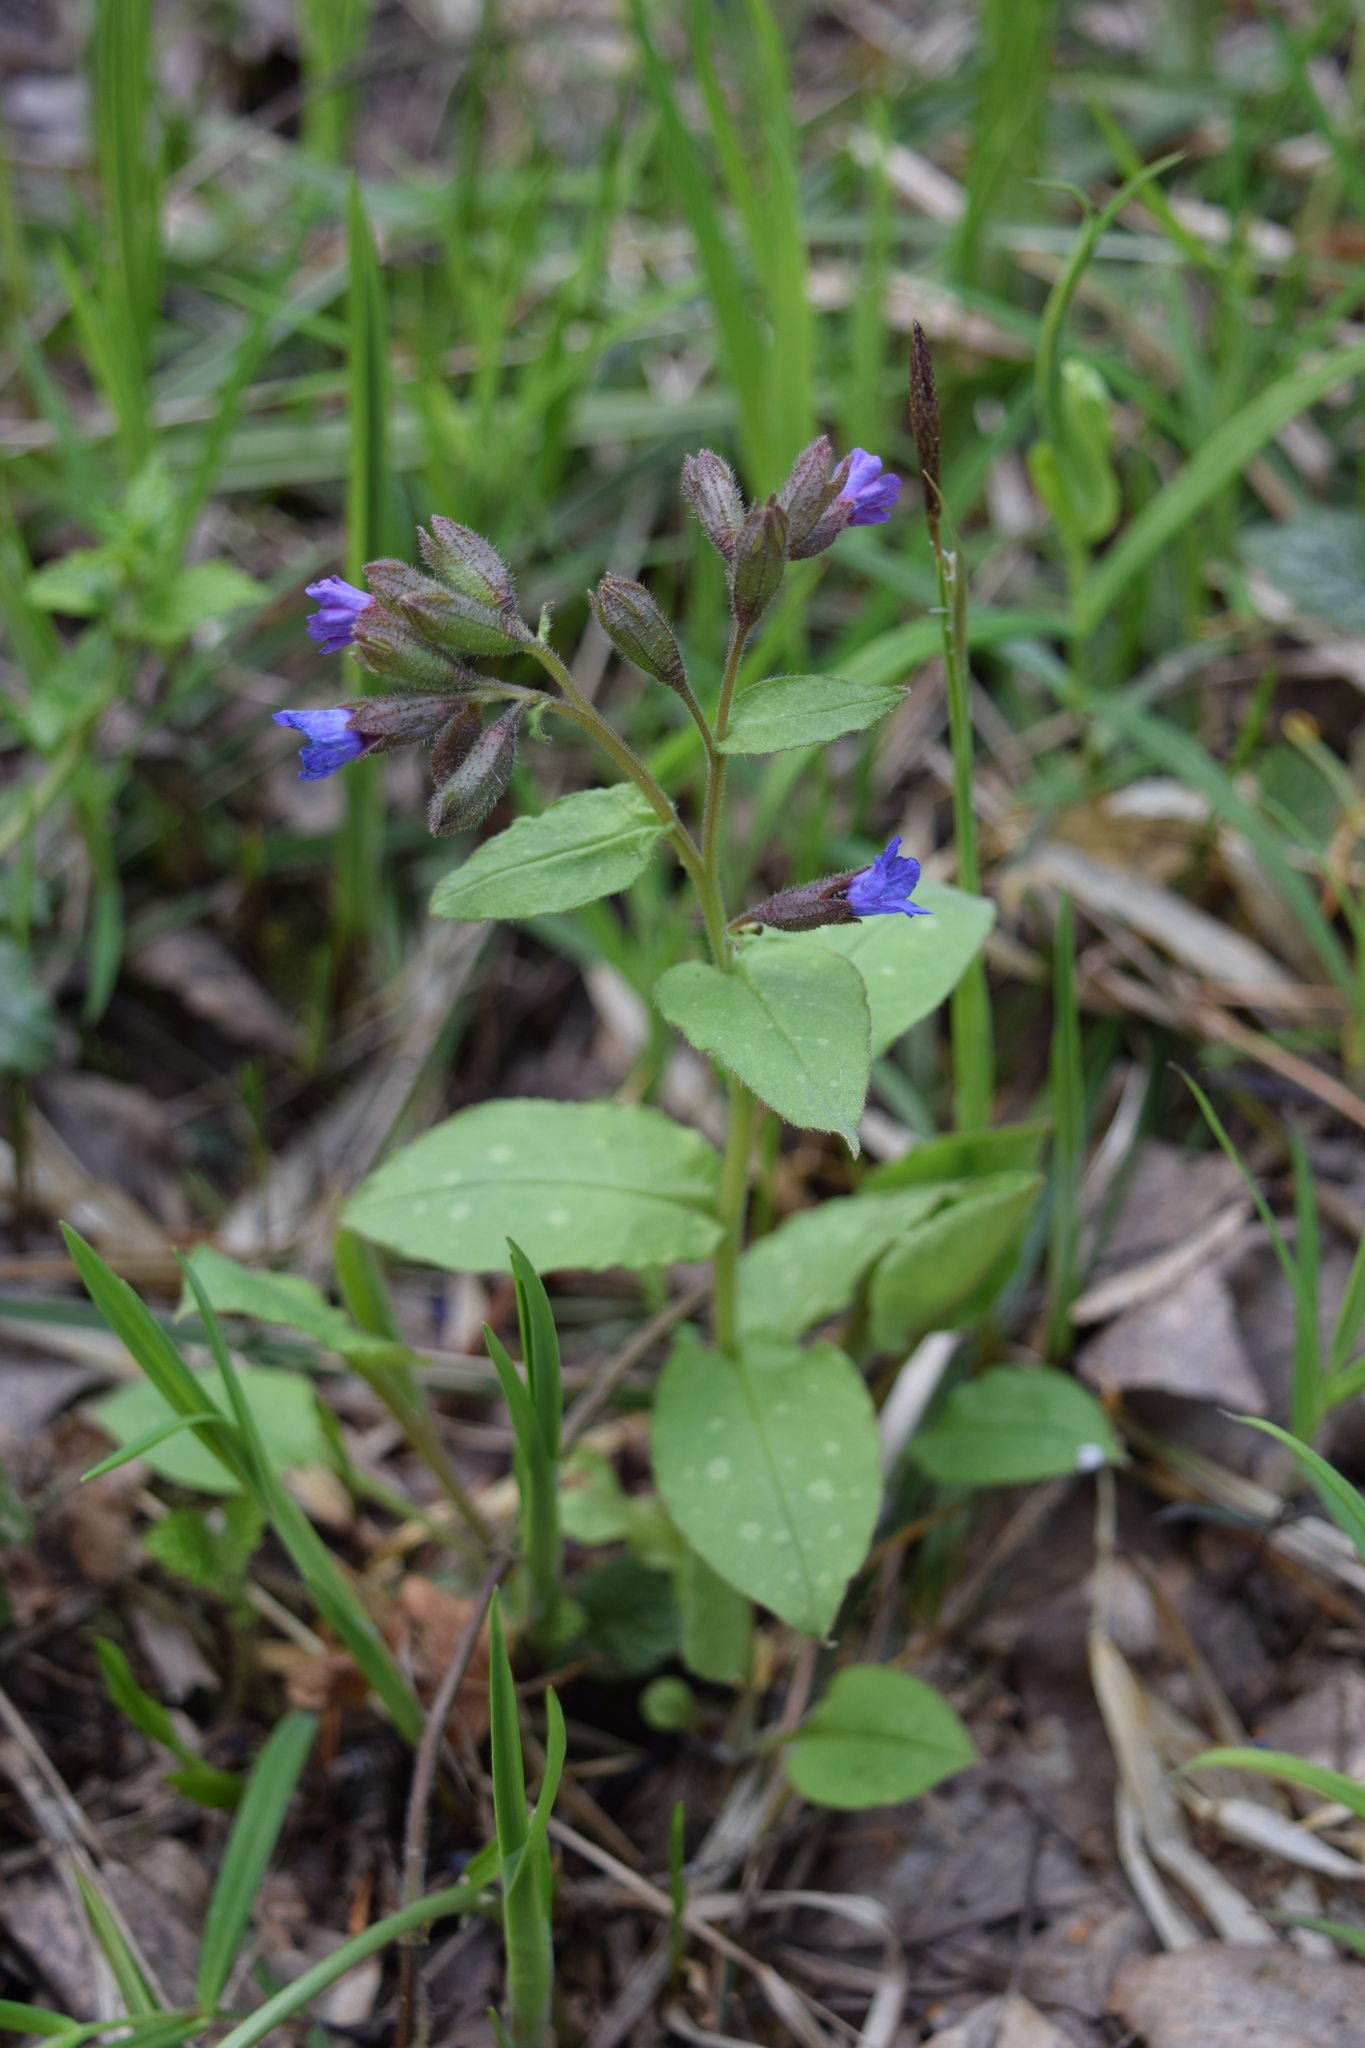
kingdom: Plantae
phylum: Tracheophyta
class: Magnoliopsida
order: Boraginales
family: Boraginaceae
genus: Pulmonaria
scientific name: Pulmonaria obscura
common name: Suffolk lungwort
